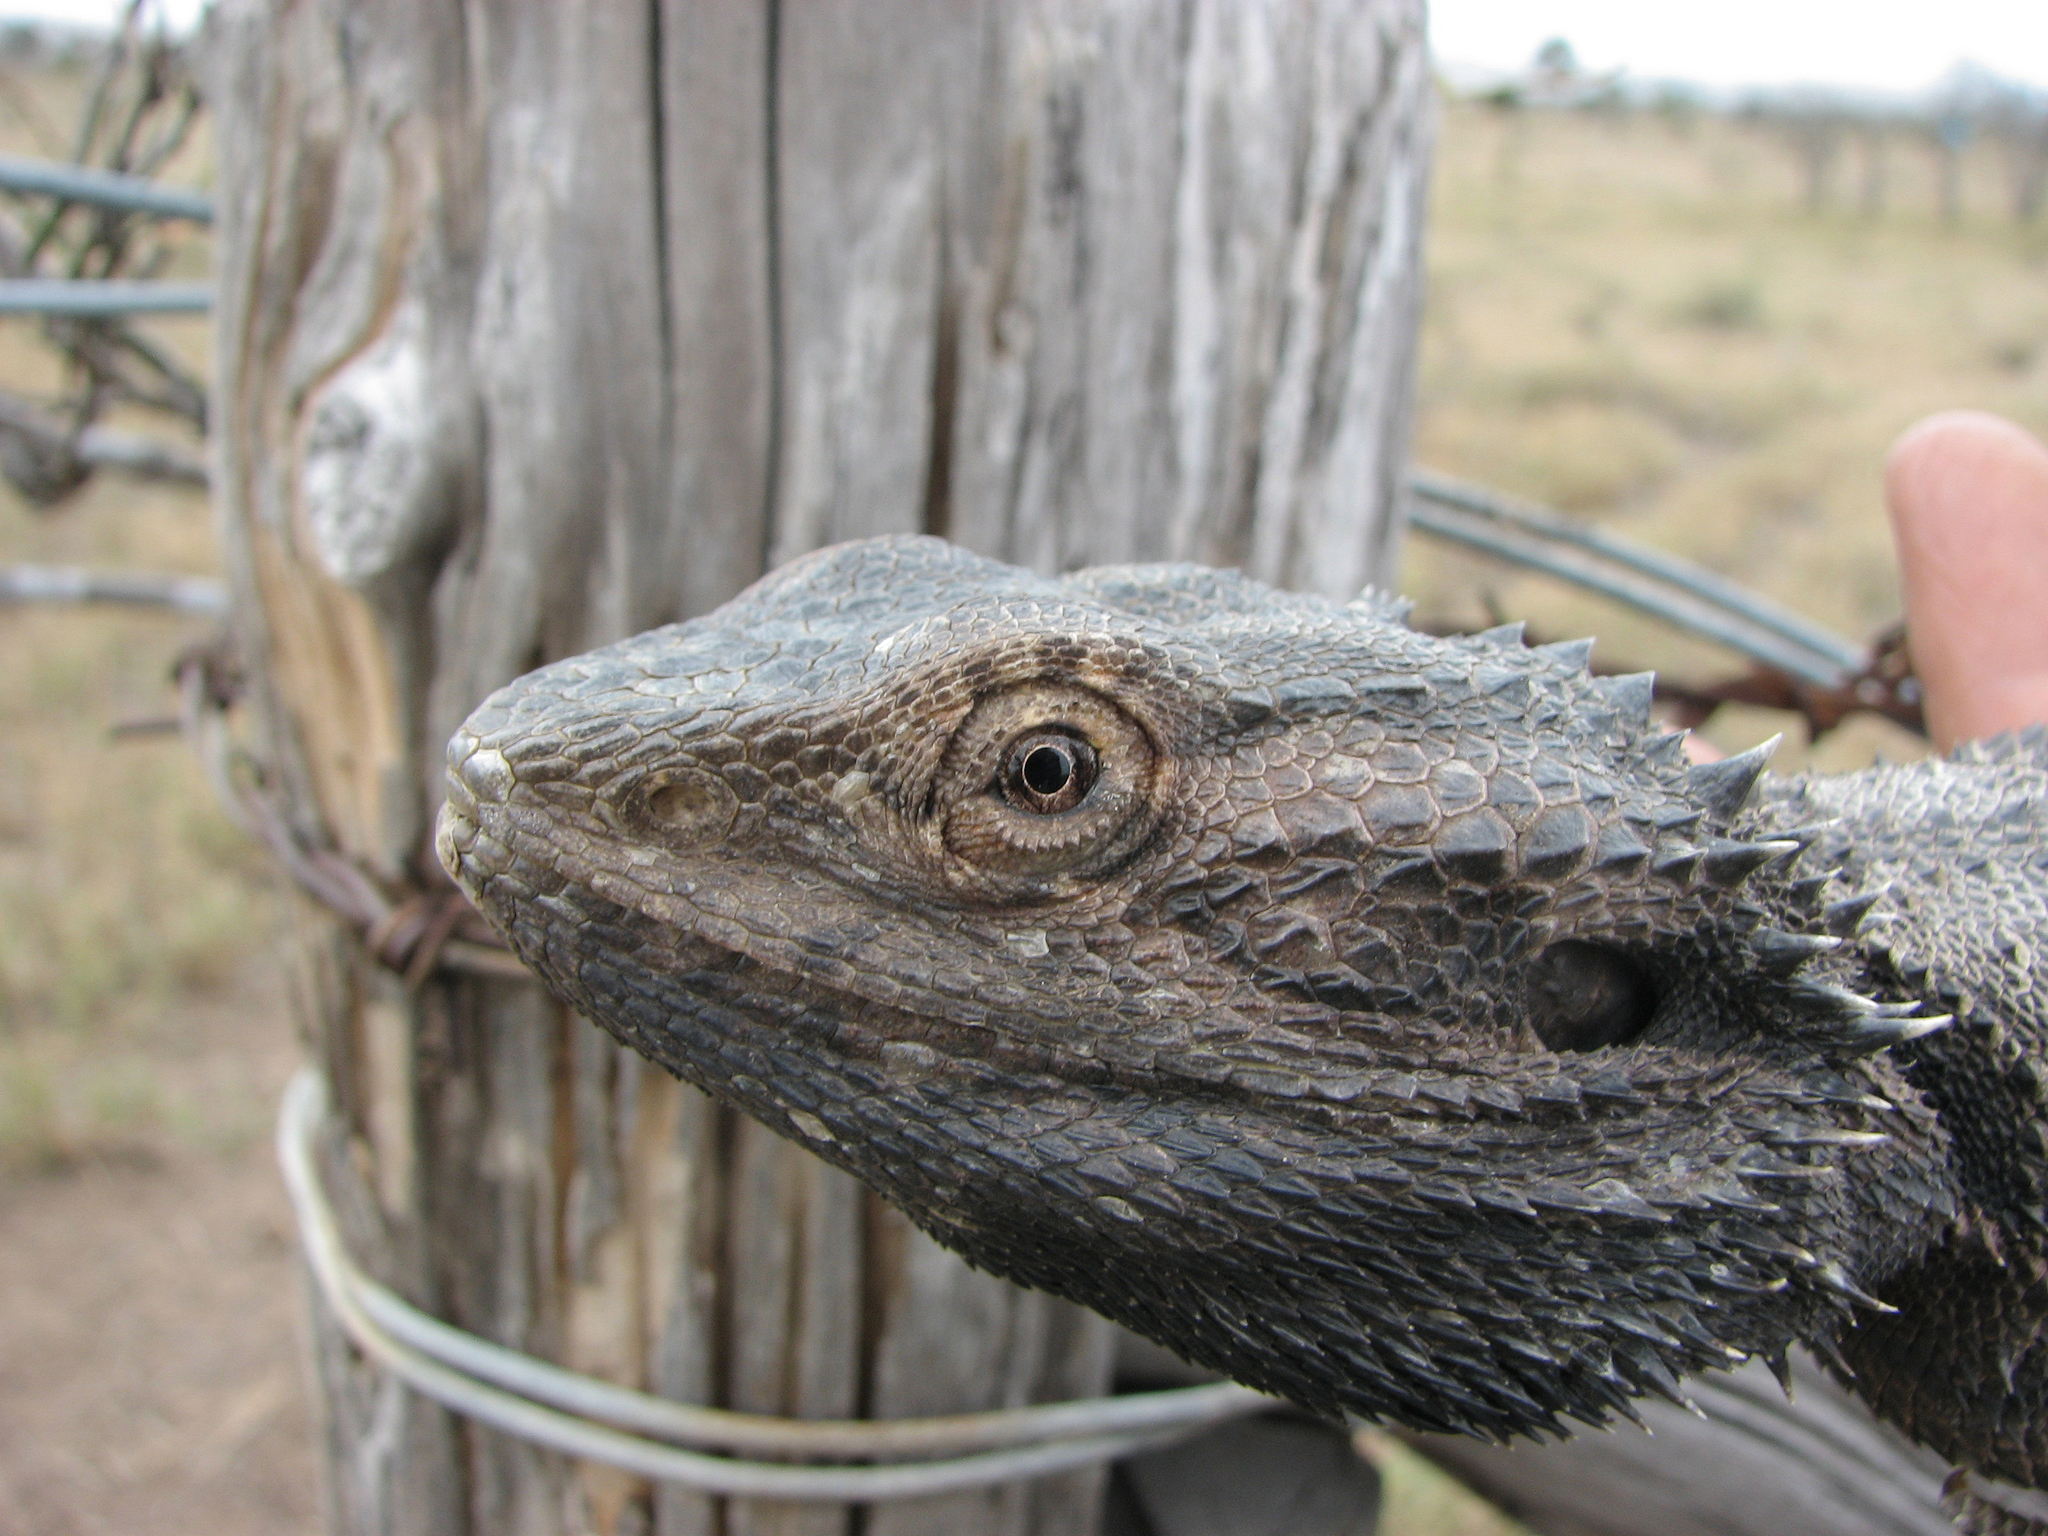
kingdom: Animalia
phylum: Chordata
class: Squamata
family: Agamidae
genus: Pogona
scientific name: Pogona barbata
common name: Bearded dragon
